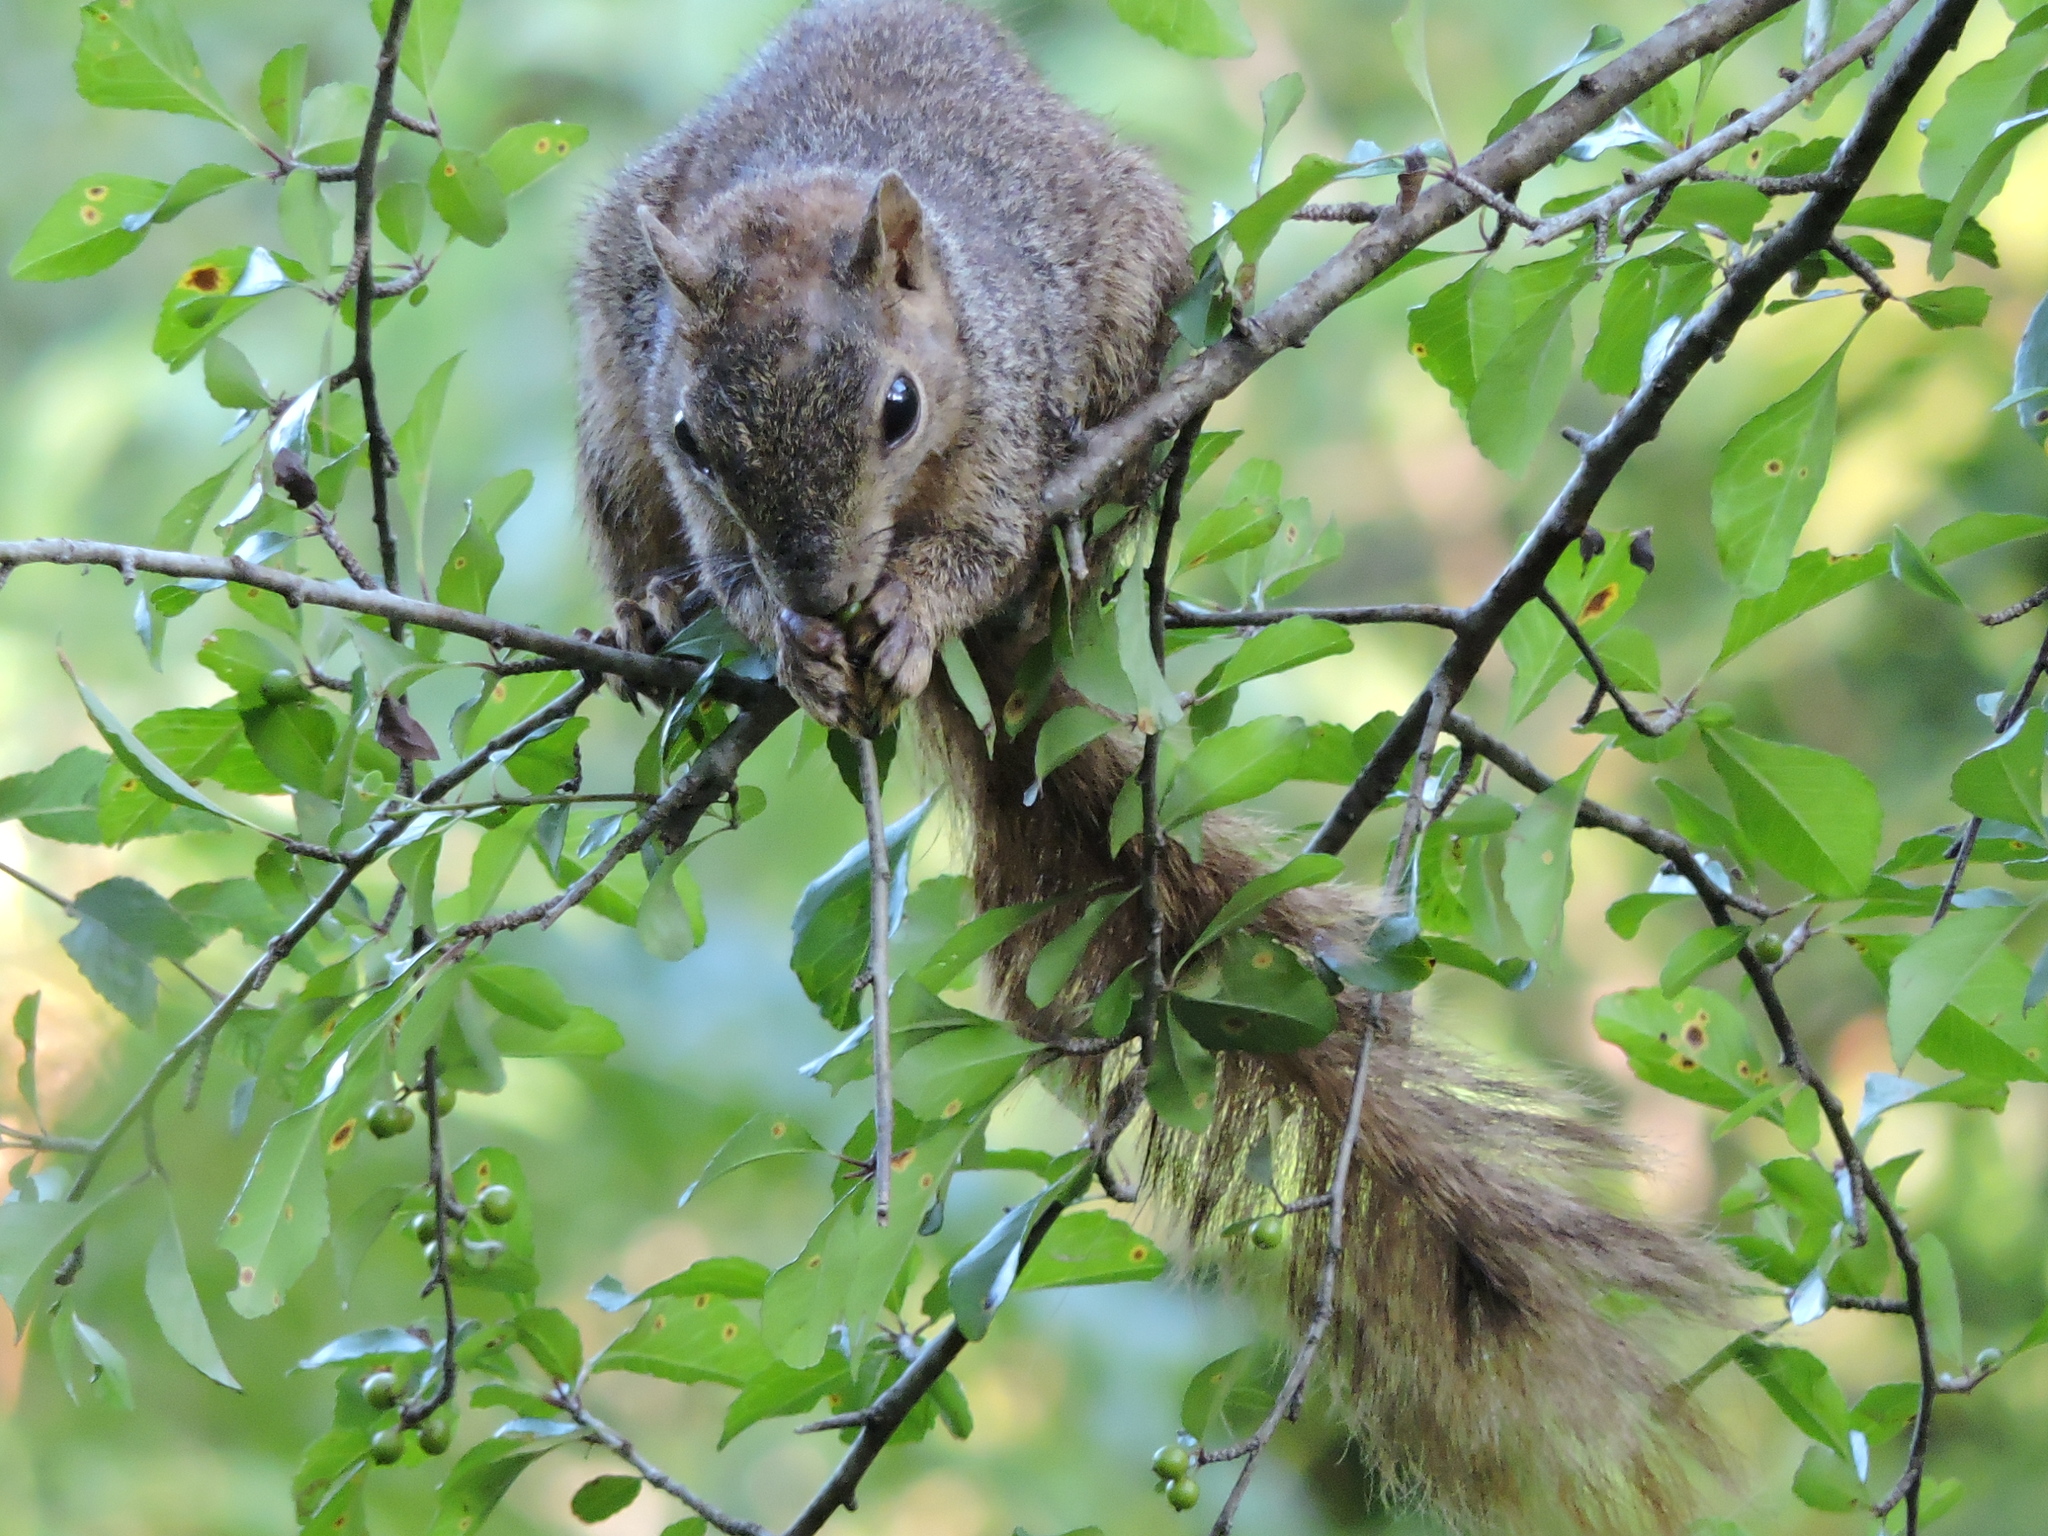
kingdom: Animalia
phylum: Chordata
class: Mammalia
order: Rodentia
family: Sciuridae
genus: Sciurus
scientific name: Sciurus niger
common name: Fox squirrel
